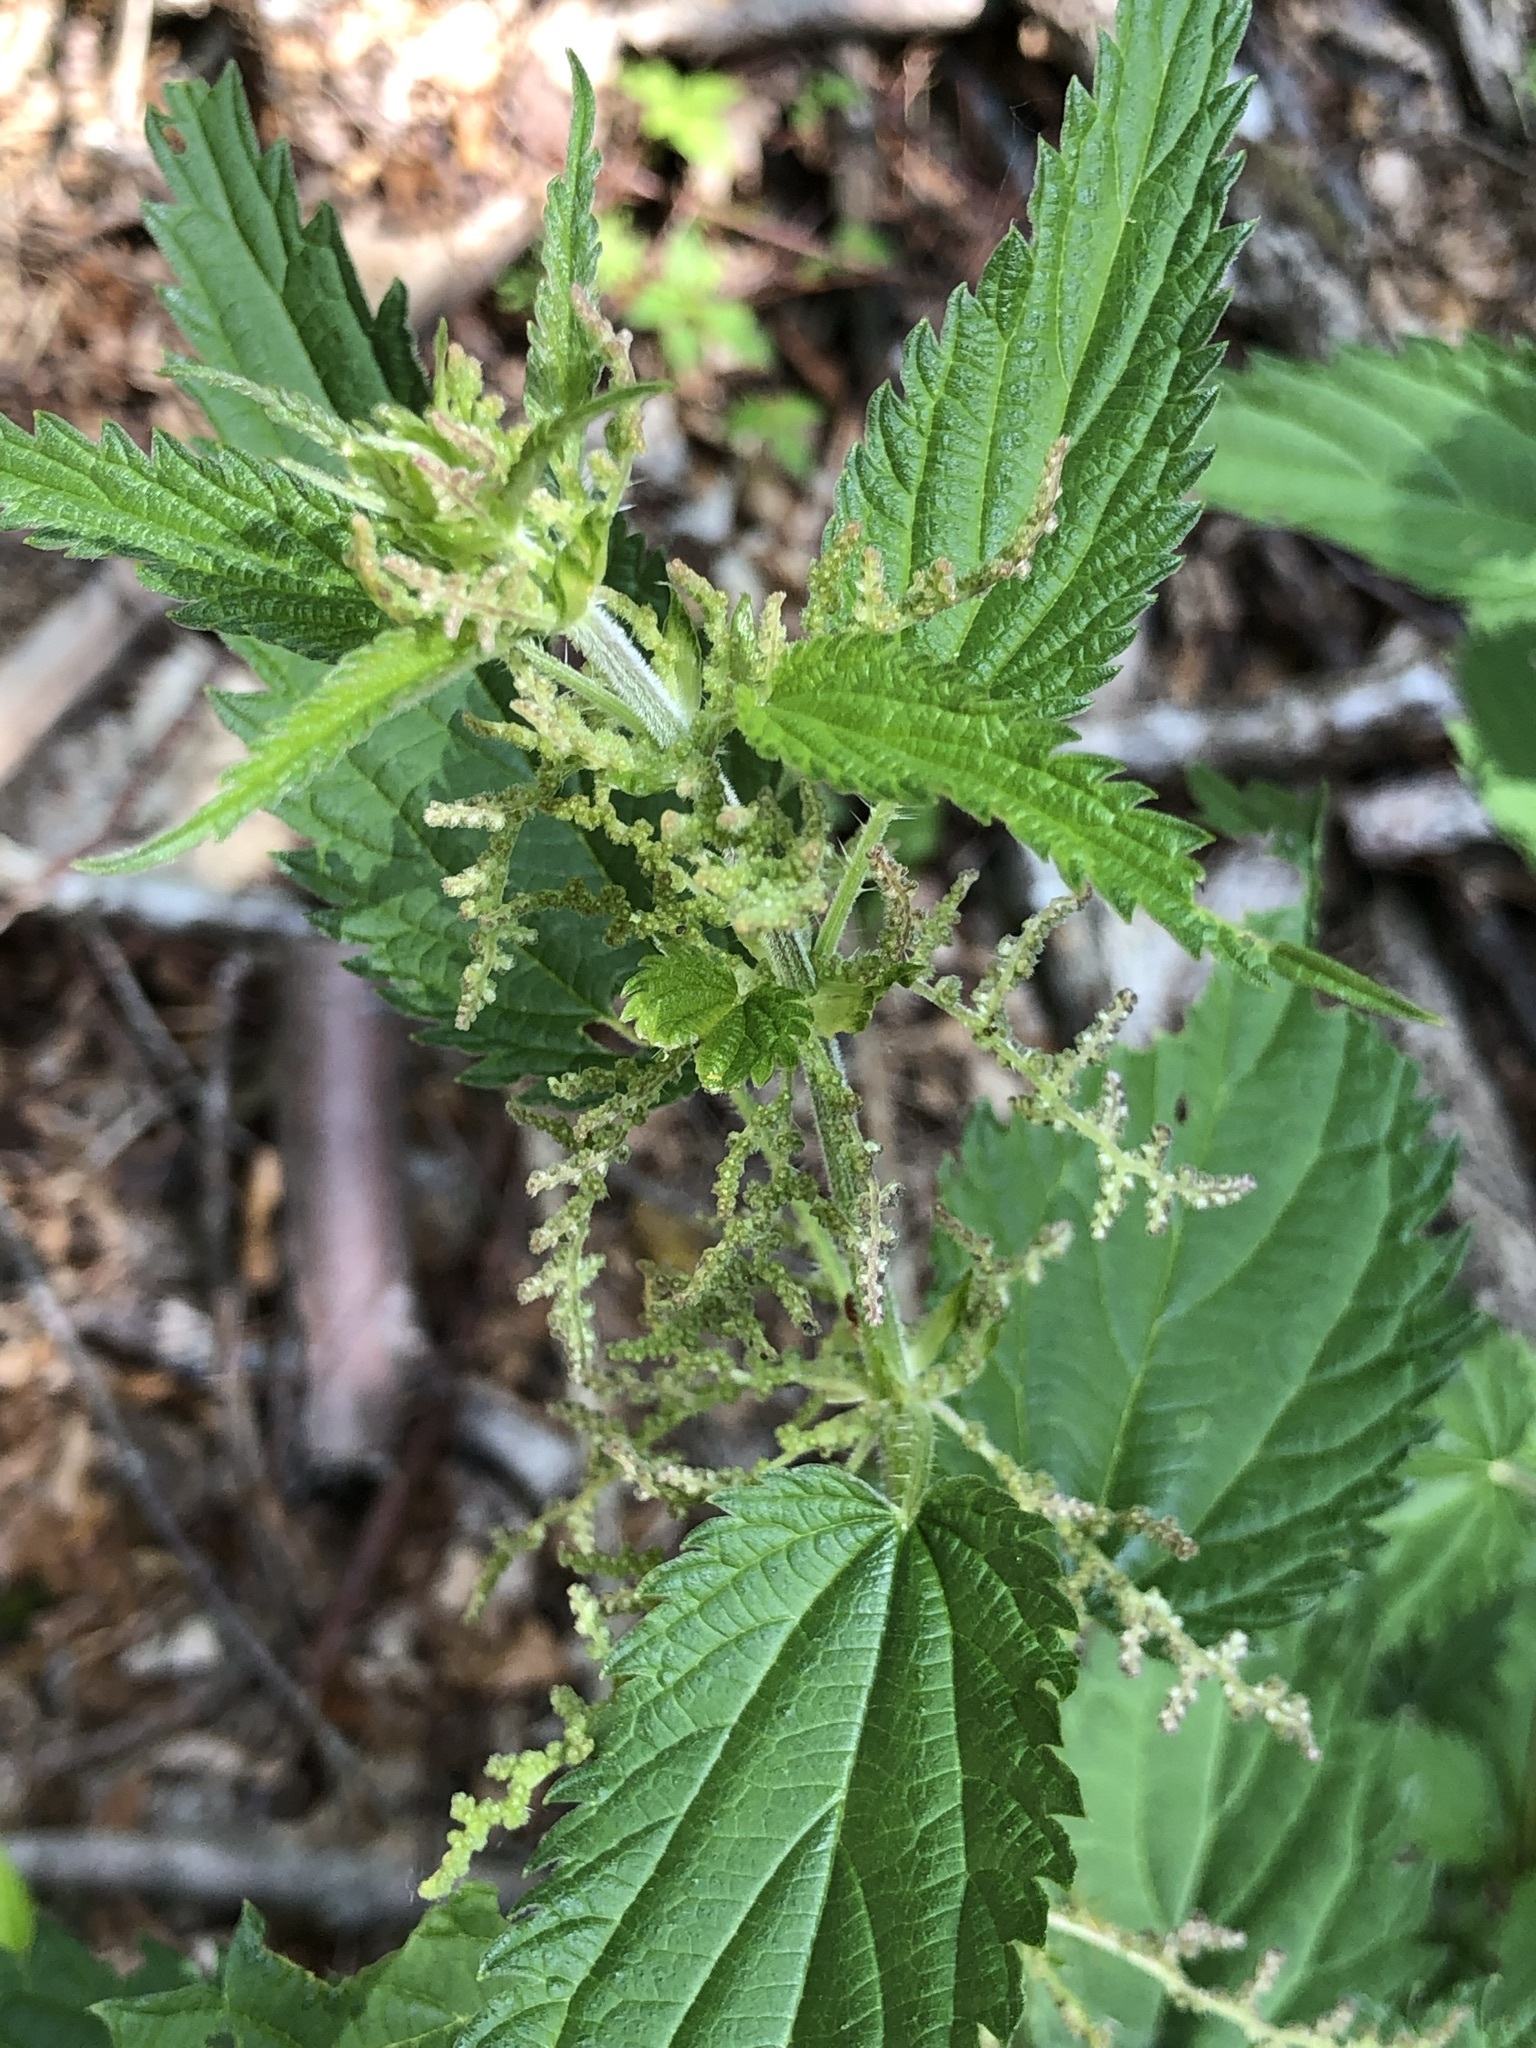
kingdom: Plantae
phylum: Tracheophyta
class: Magnoliopsida
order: Rosales
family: Urticaceae
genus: Urtica
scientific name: Urtica dioica
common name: Common nettle
